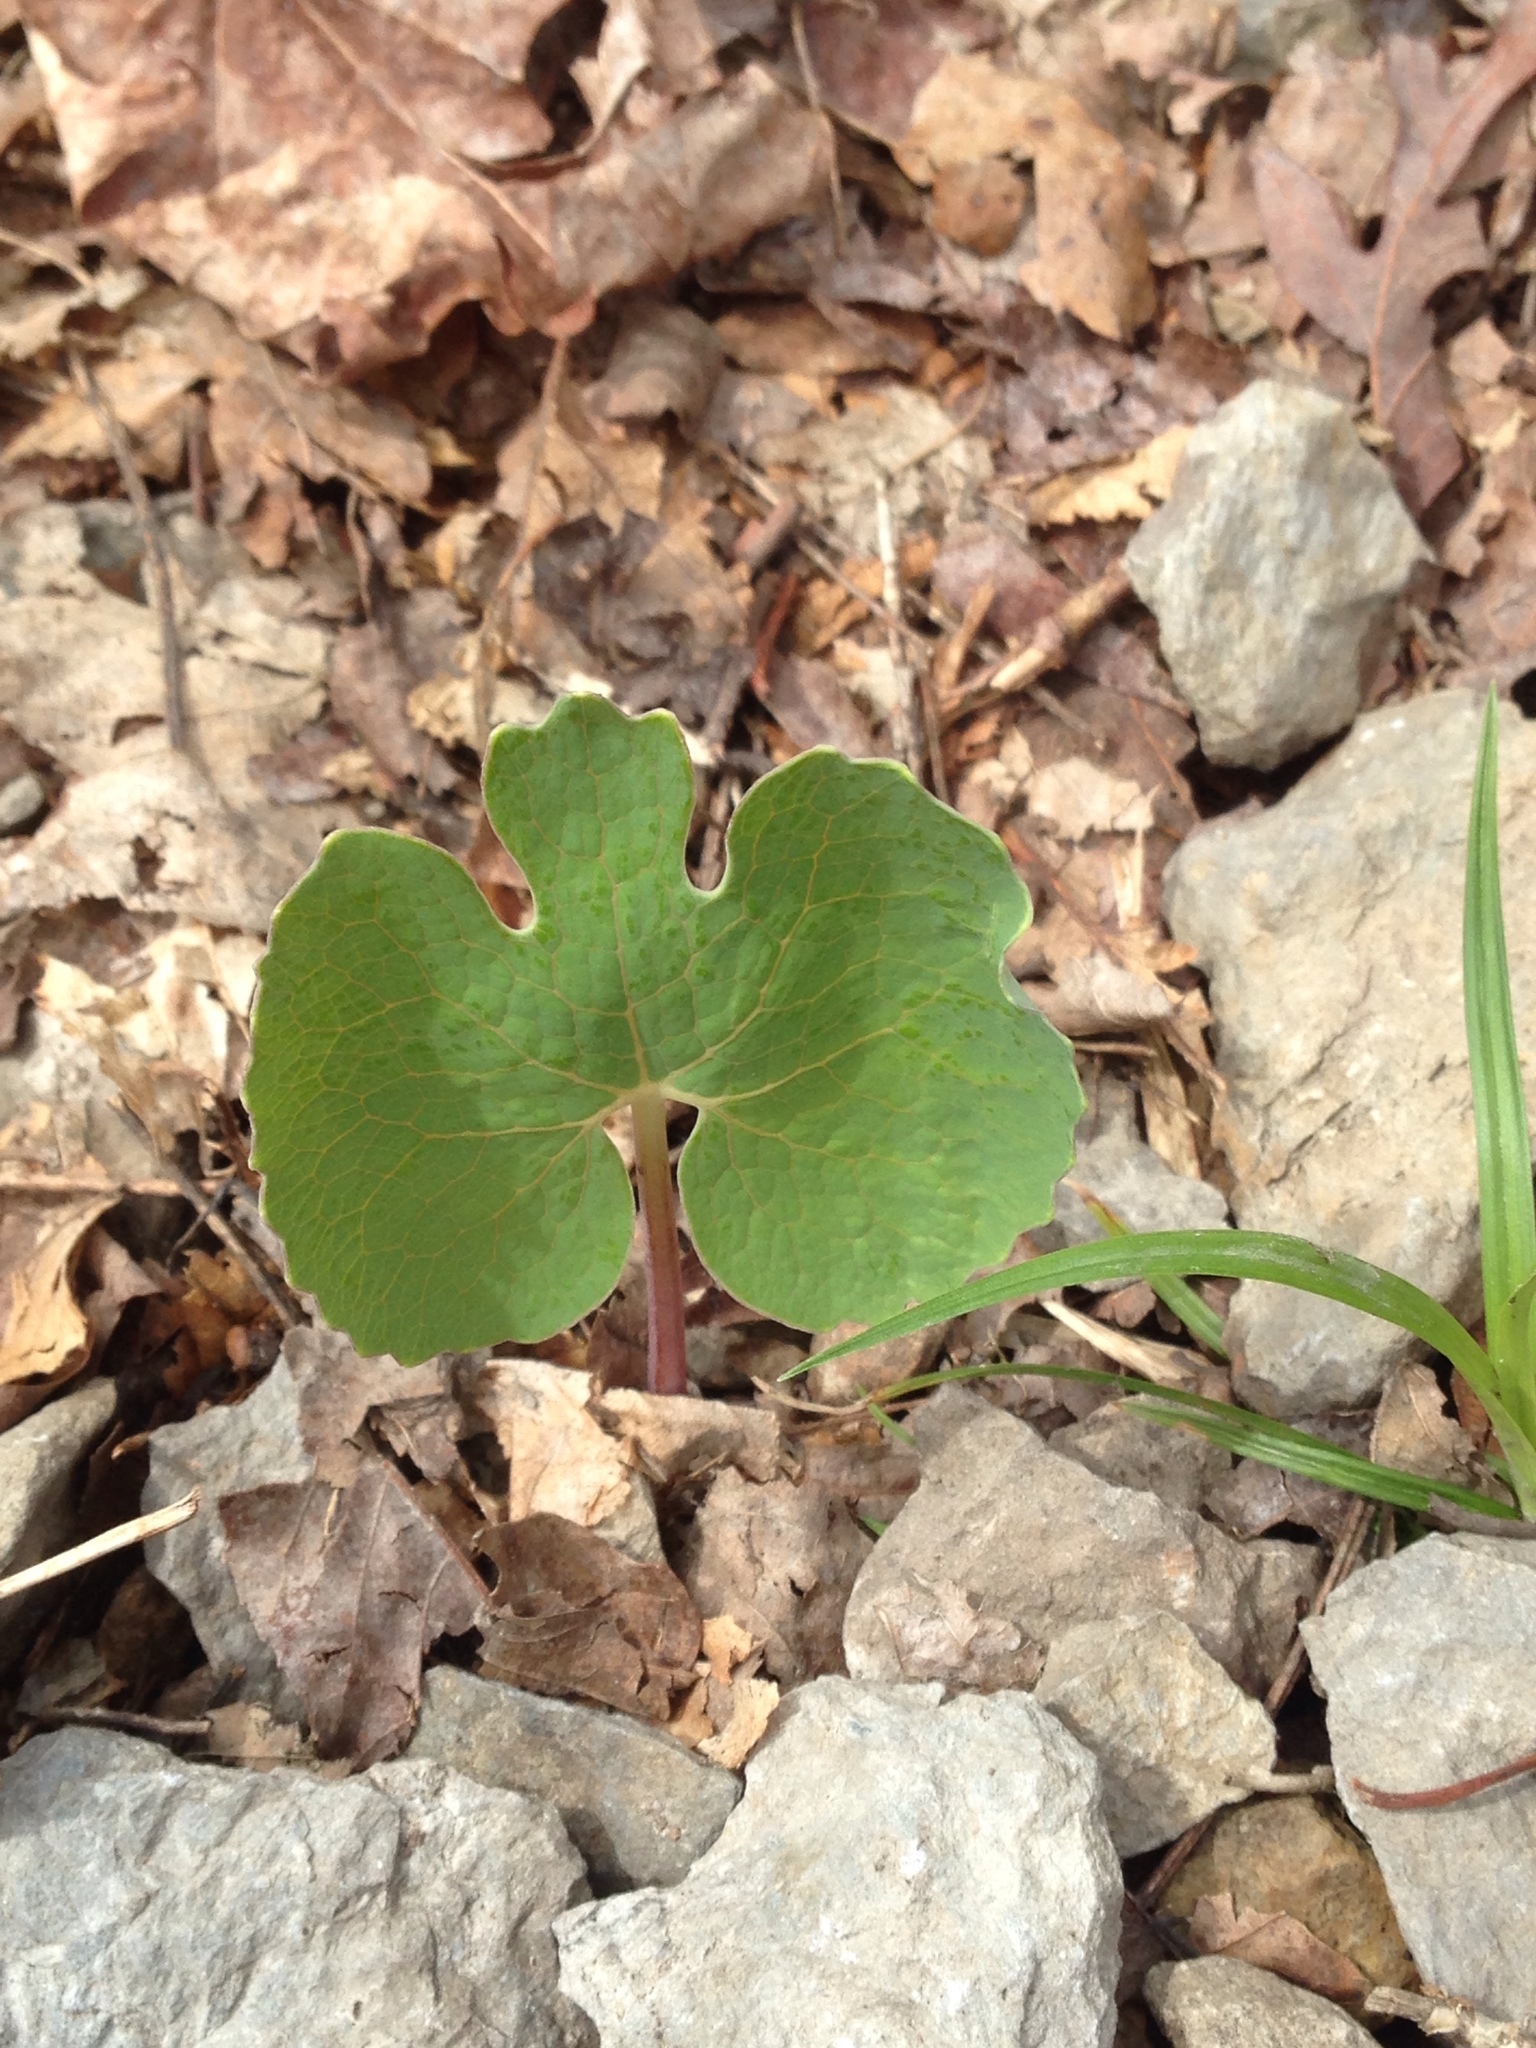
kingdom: Plantae
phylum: Tracheophyta
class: Magnoliopsida
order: Ranunculales
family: Papaveraceae
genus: Sanguinaria
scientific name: Sanguinaria canadensis
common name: Bloodroot
